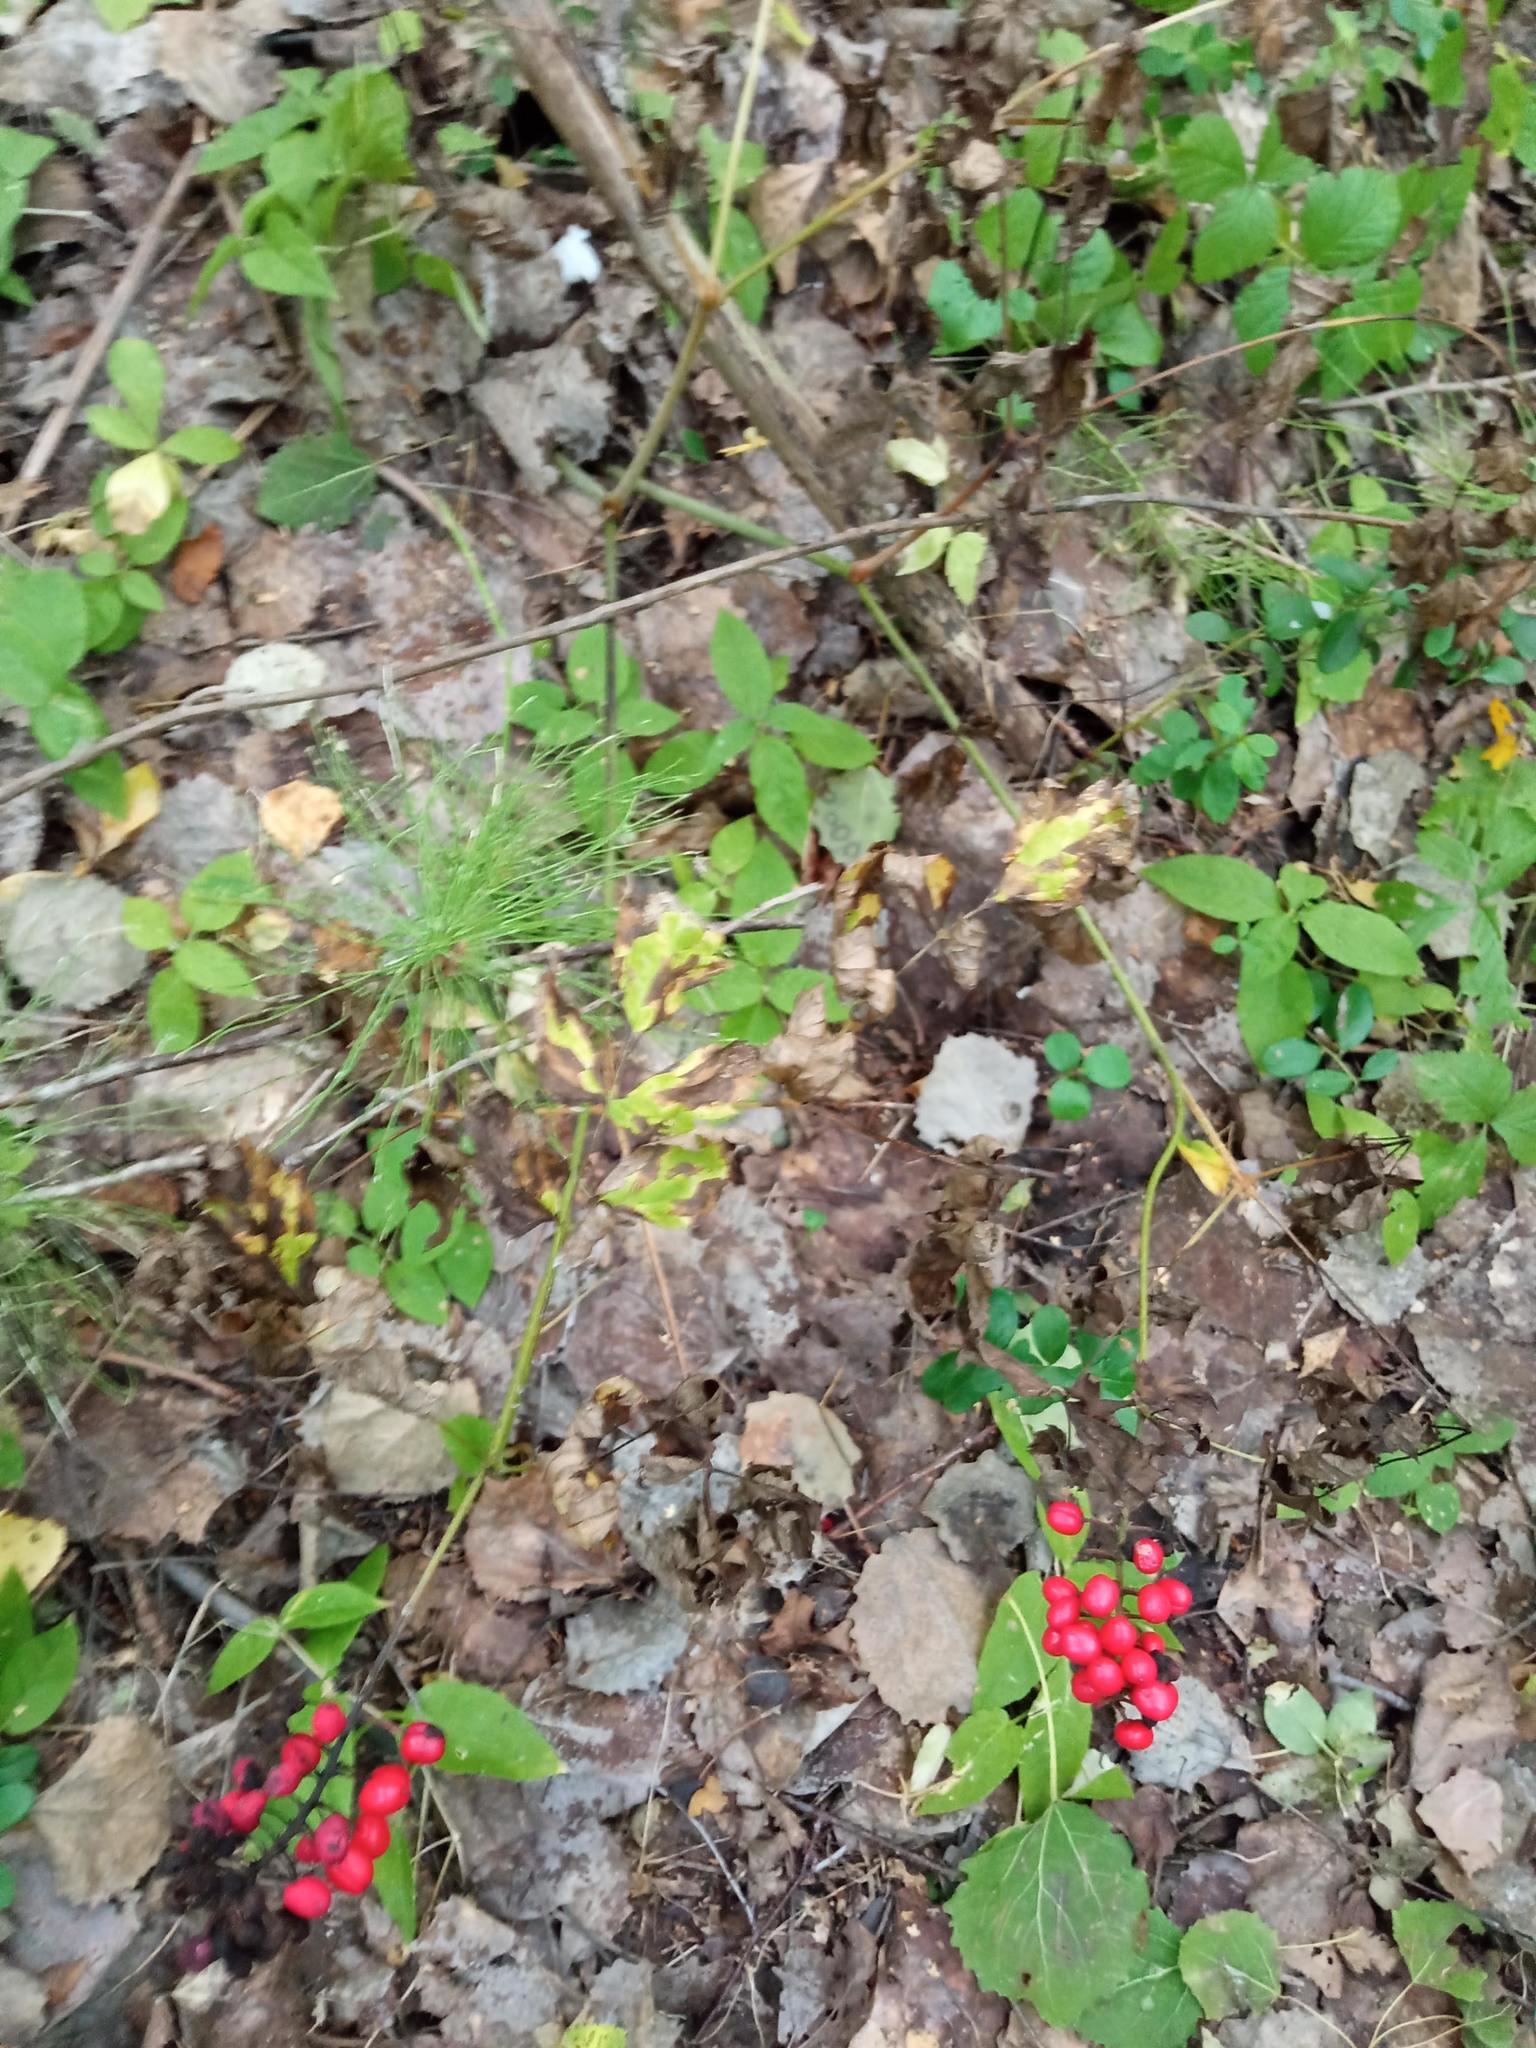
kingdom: Plantae
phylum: Tracheophyta
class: Magnoliopsida
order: Ranunculales
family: Ranunculaceae
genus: Actaea
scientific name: Actaea erythrocarpa
